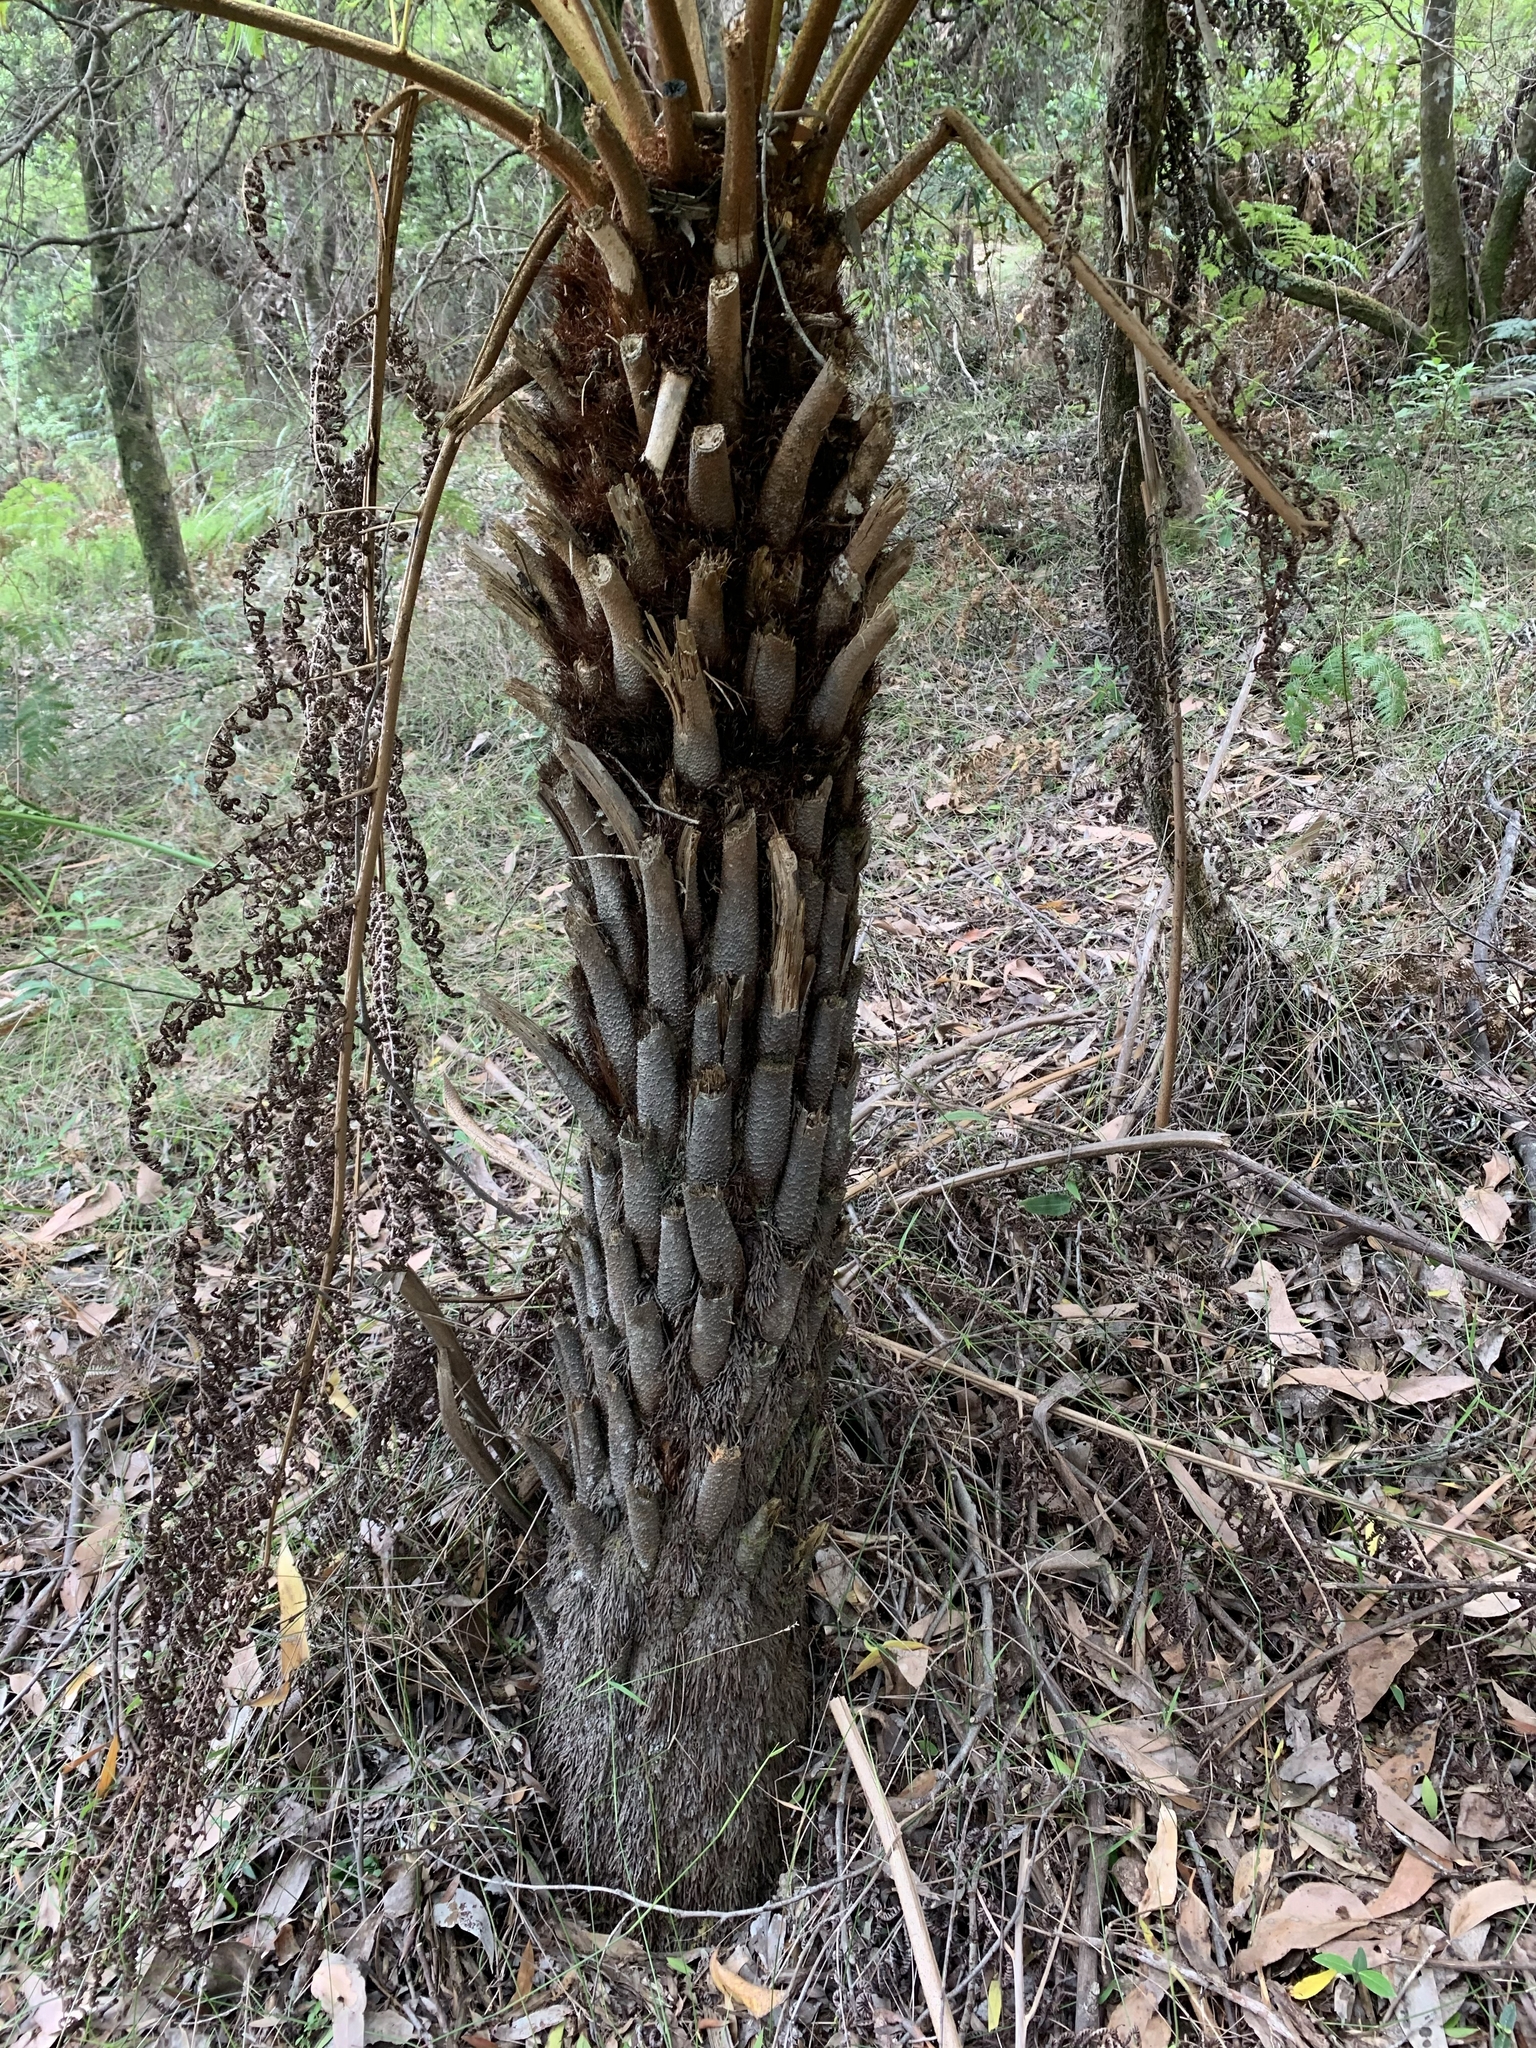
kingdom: Plantae
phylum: Tracheophyta
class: Polypodiopsida
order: Cyatheales
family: Cyatheaceae
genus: Alsophila
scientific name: Alsophila australis
